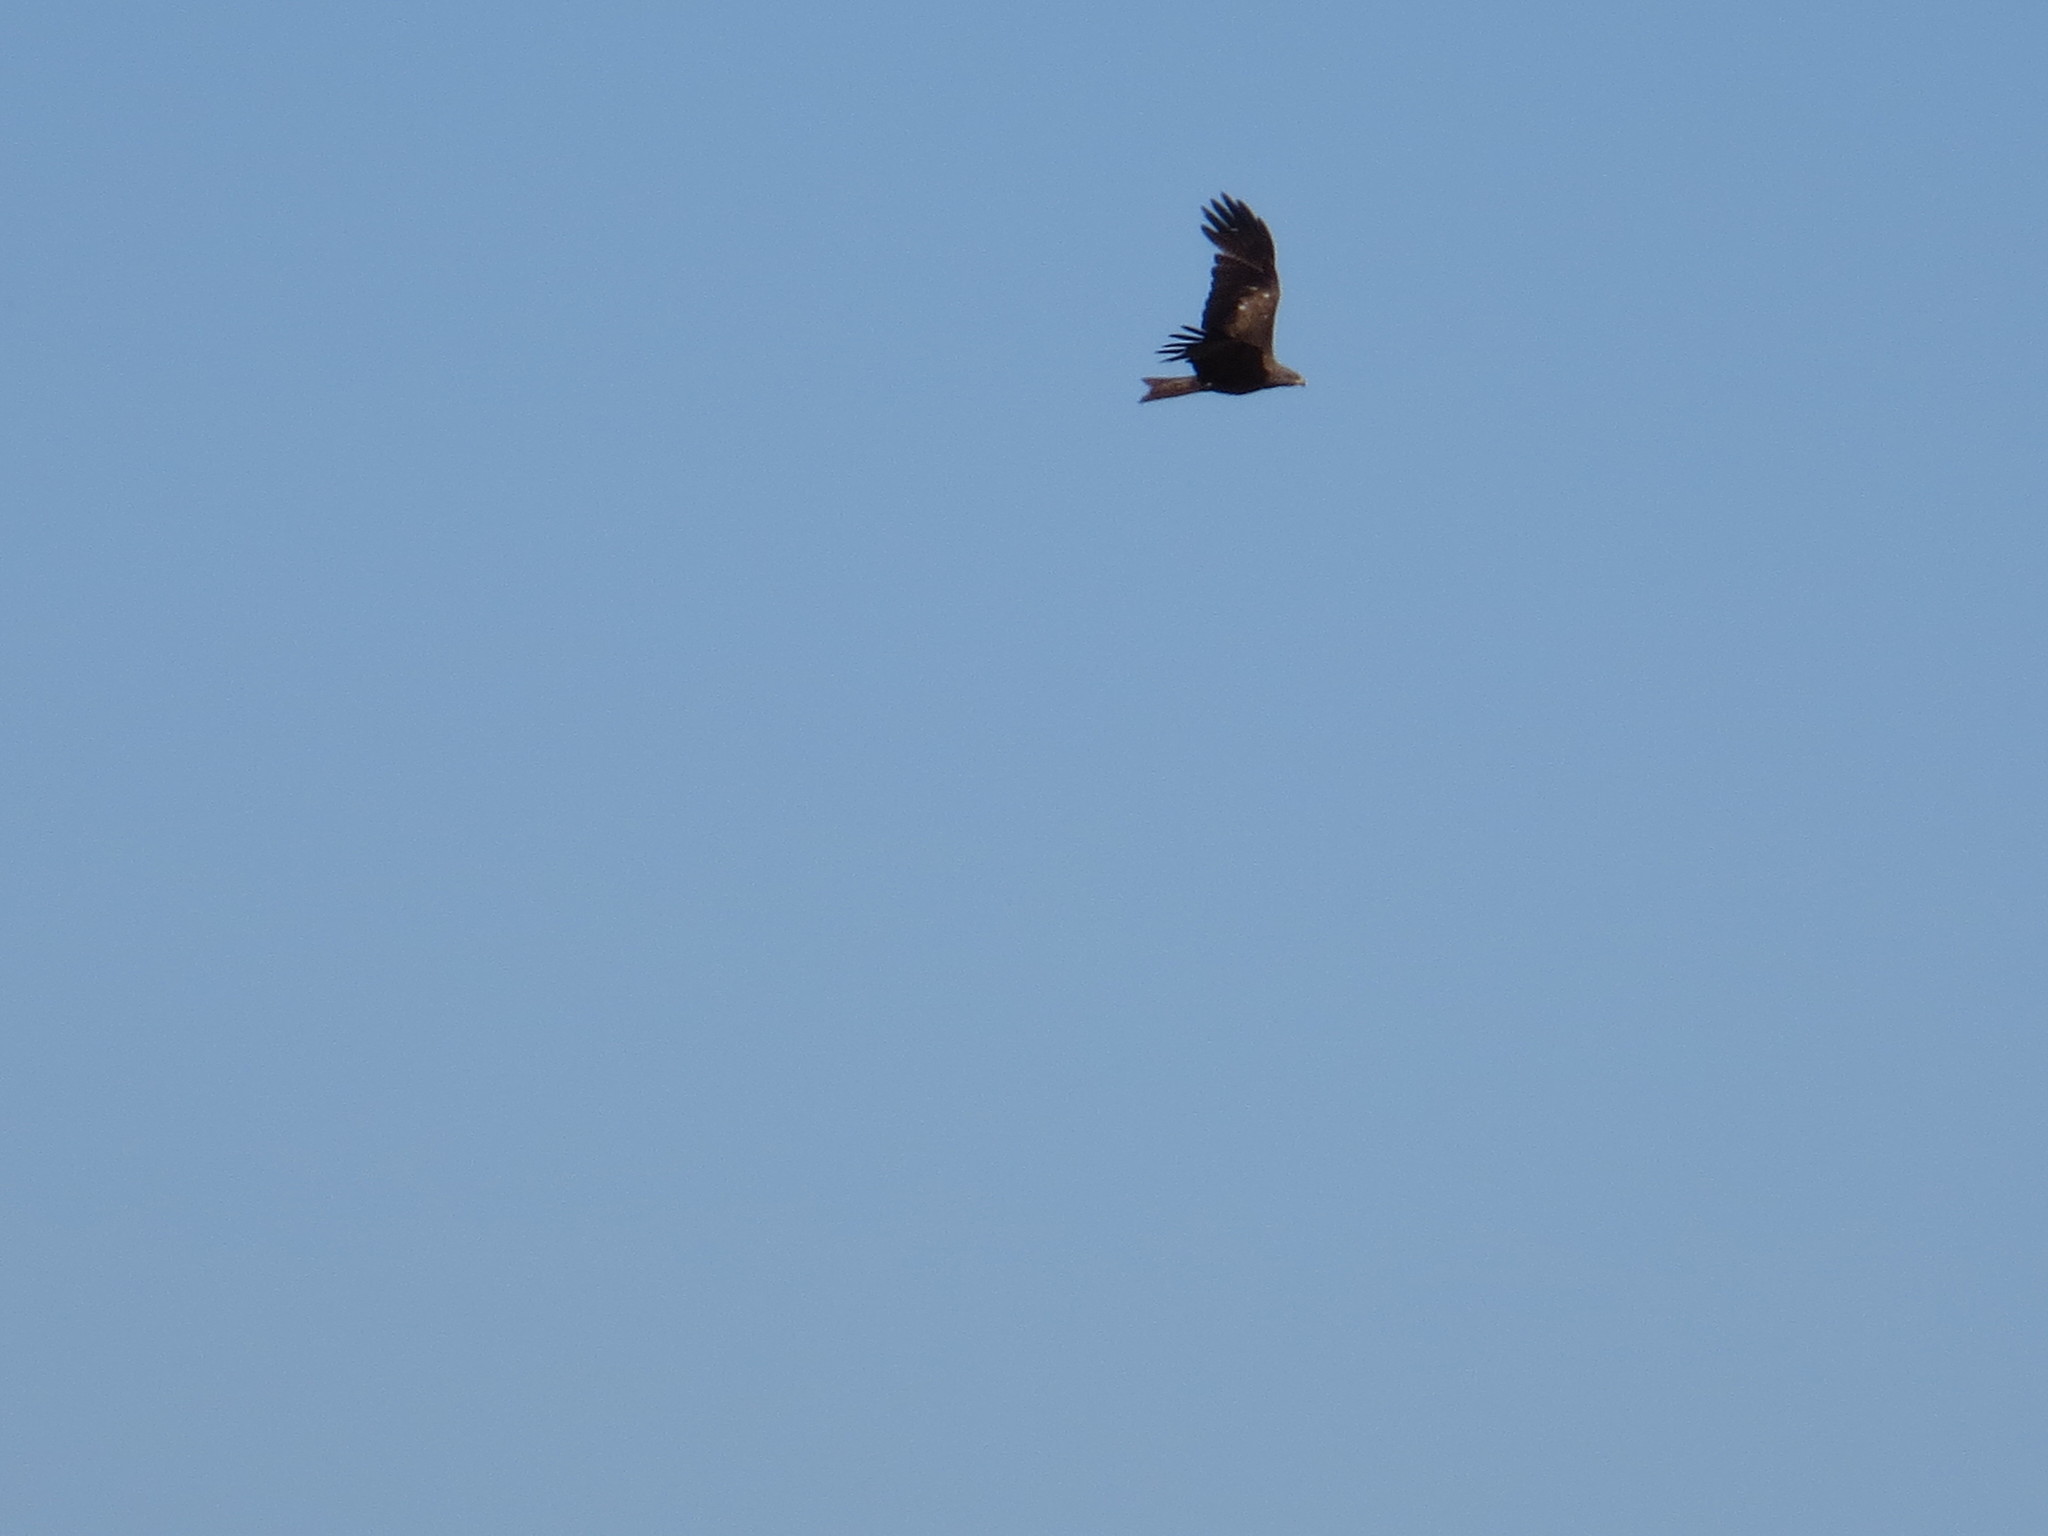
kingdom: Animalia
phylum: Chordata
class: Aves
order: Accipitriformes
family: Accipitridae
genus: Milvus
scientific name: Milvus migrans
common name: Black kite
